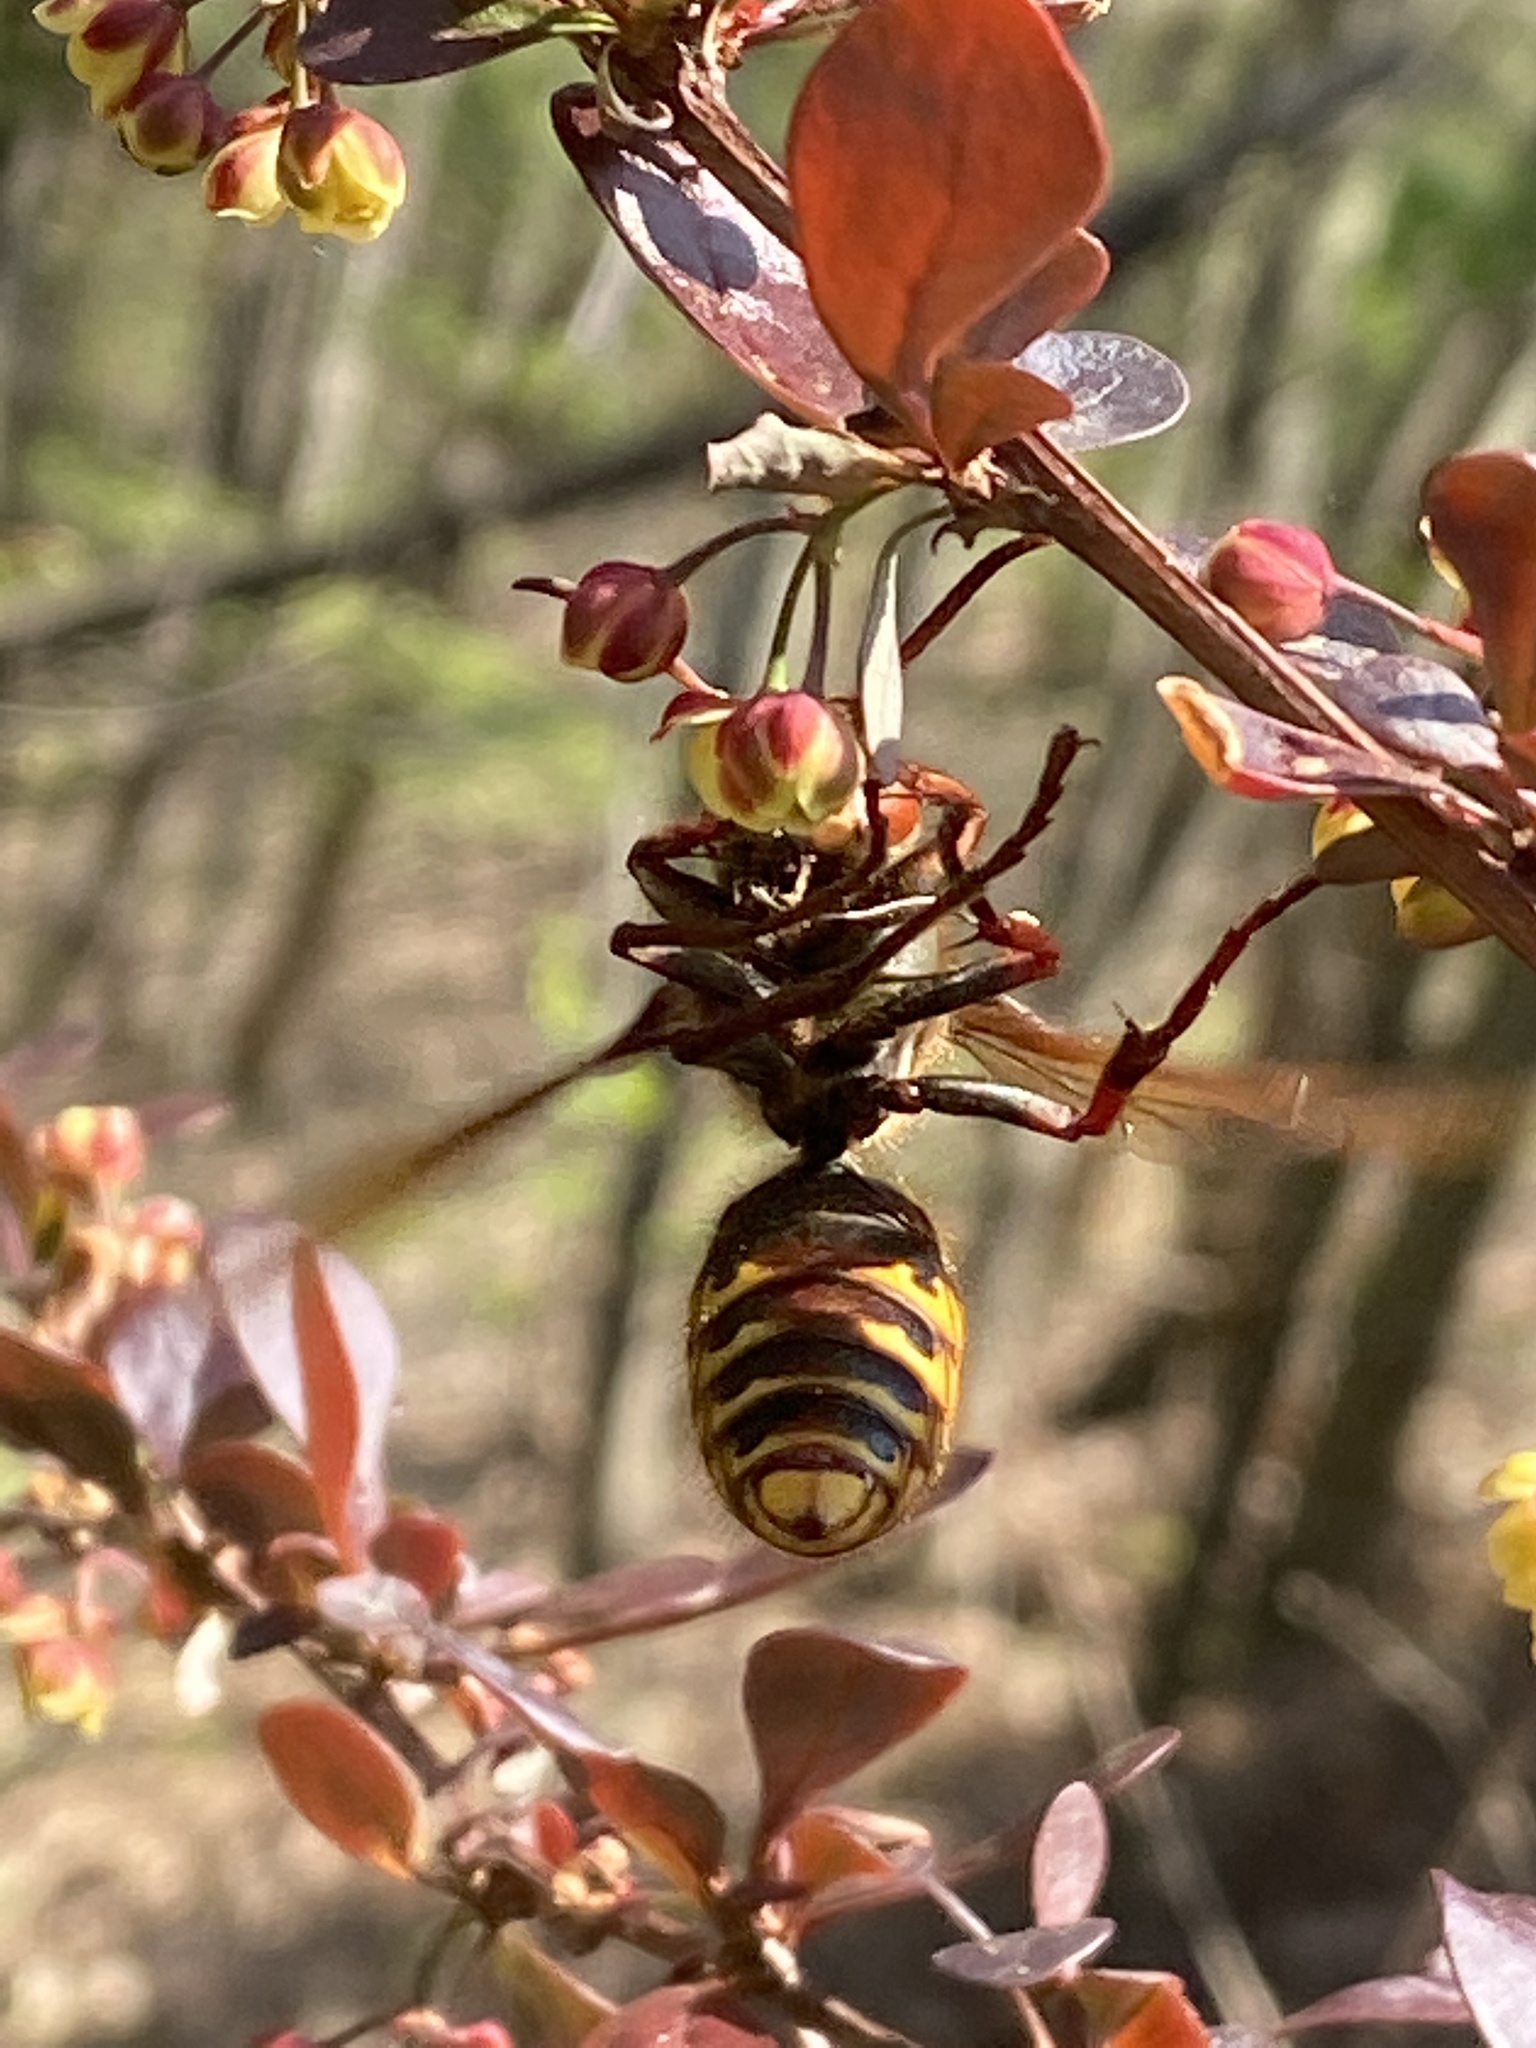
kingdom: Animalia
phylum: Arthropoda
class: Insecta
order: Hymenoptera
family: Vespidae
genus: Vespa
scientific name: Vespa crabro
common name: Hornet
